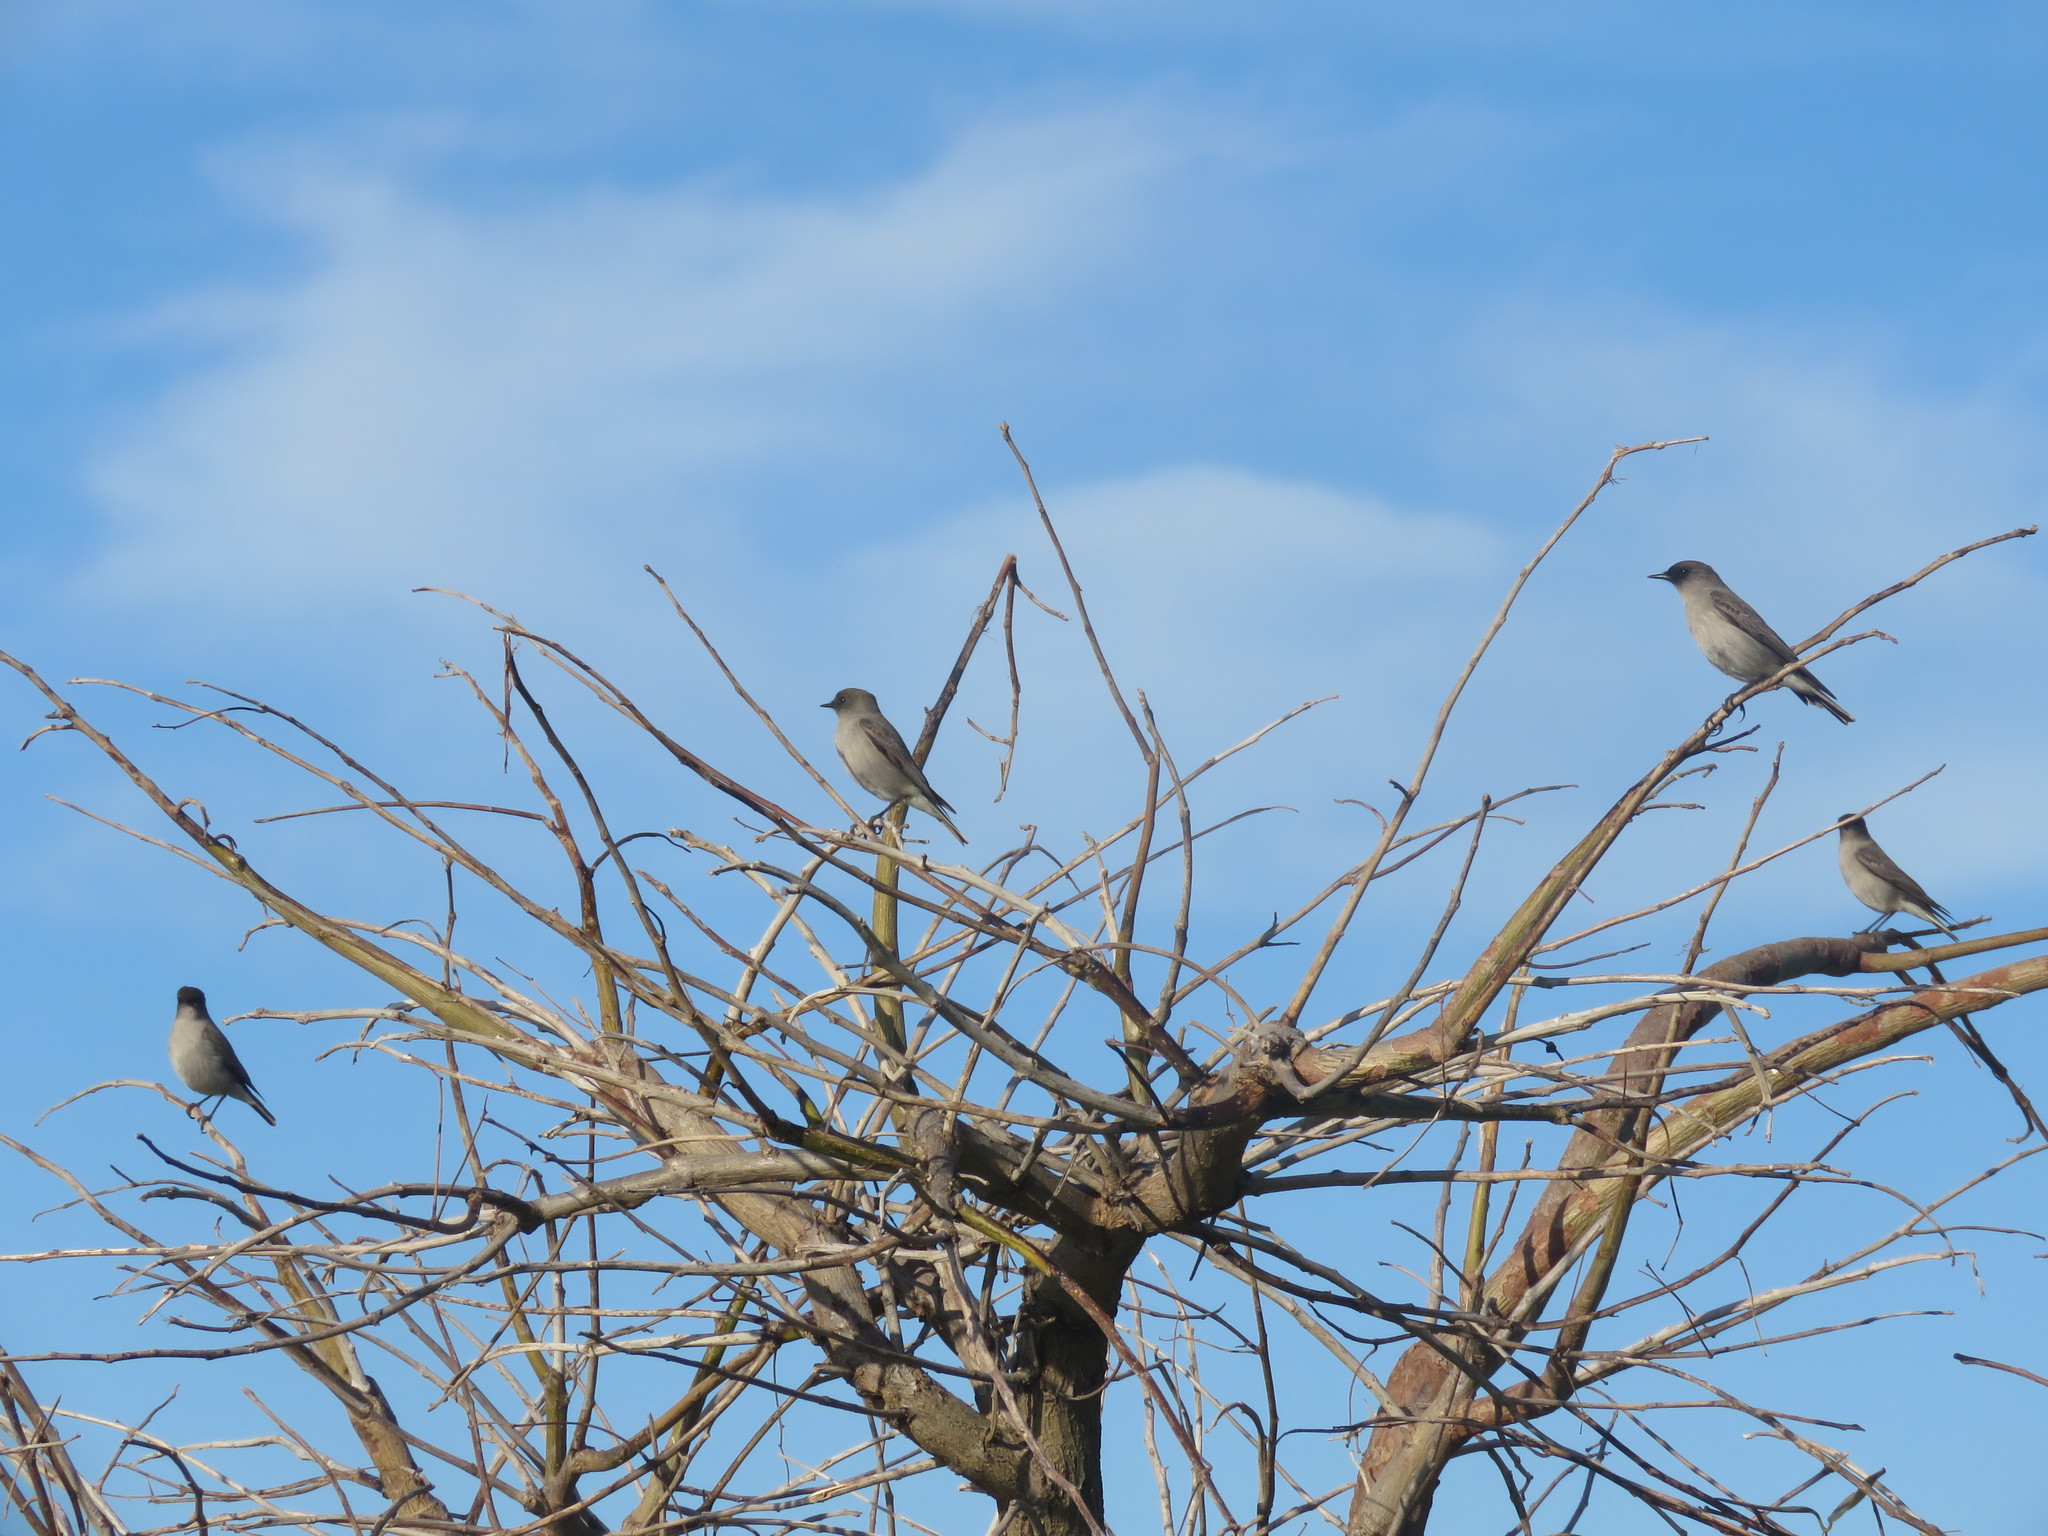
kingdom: Animalia
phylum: Chordata
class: Aves
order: Passeriformes
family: Tyrannidae
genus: Muscisaxicola
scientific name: Muscisaxicola maclovianus
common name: Dark-faced ground tyrant
